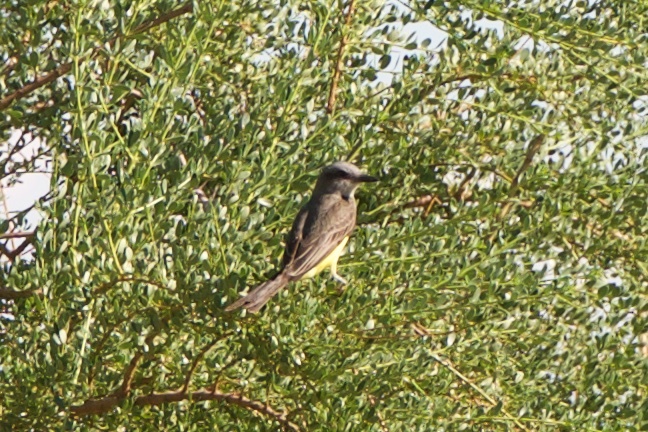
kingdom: Animalia
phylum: Chordata
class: Aves
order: Passeriformes
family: Tyrannidae
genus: Tyrannus
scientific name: Tyrannus melancholicus
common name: Tropical kingbird
